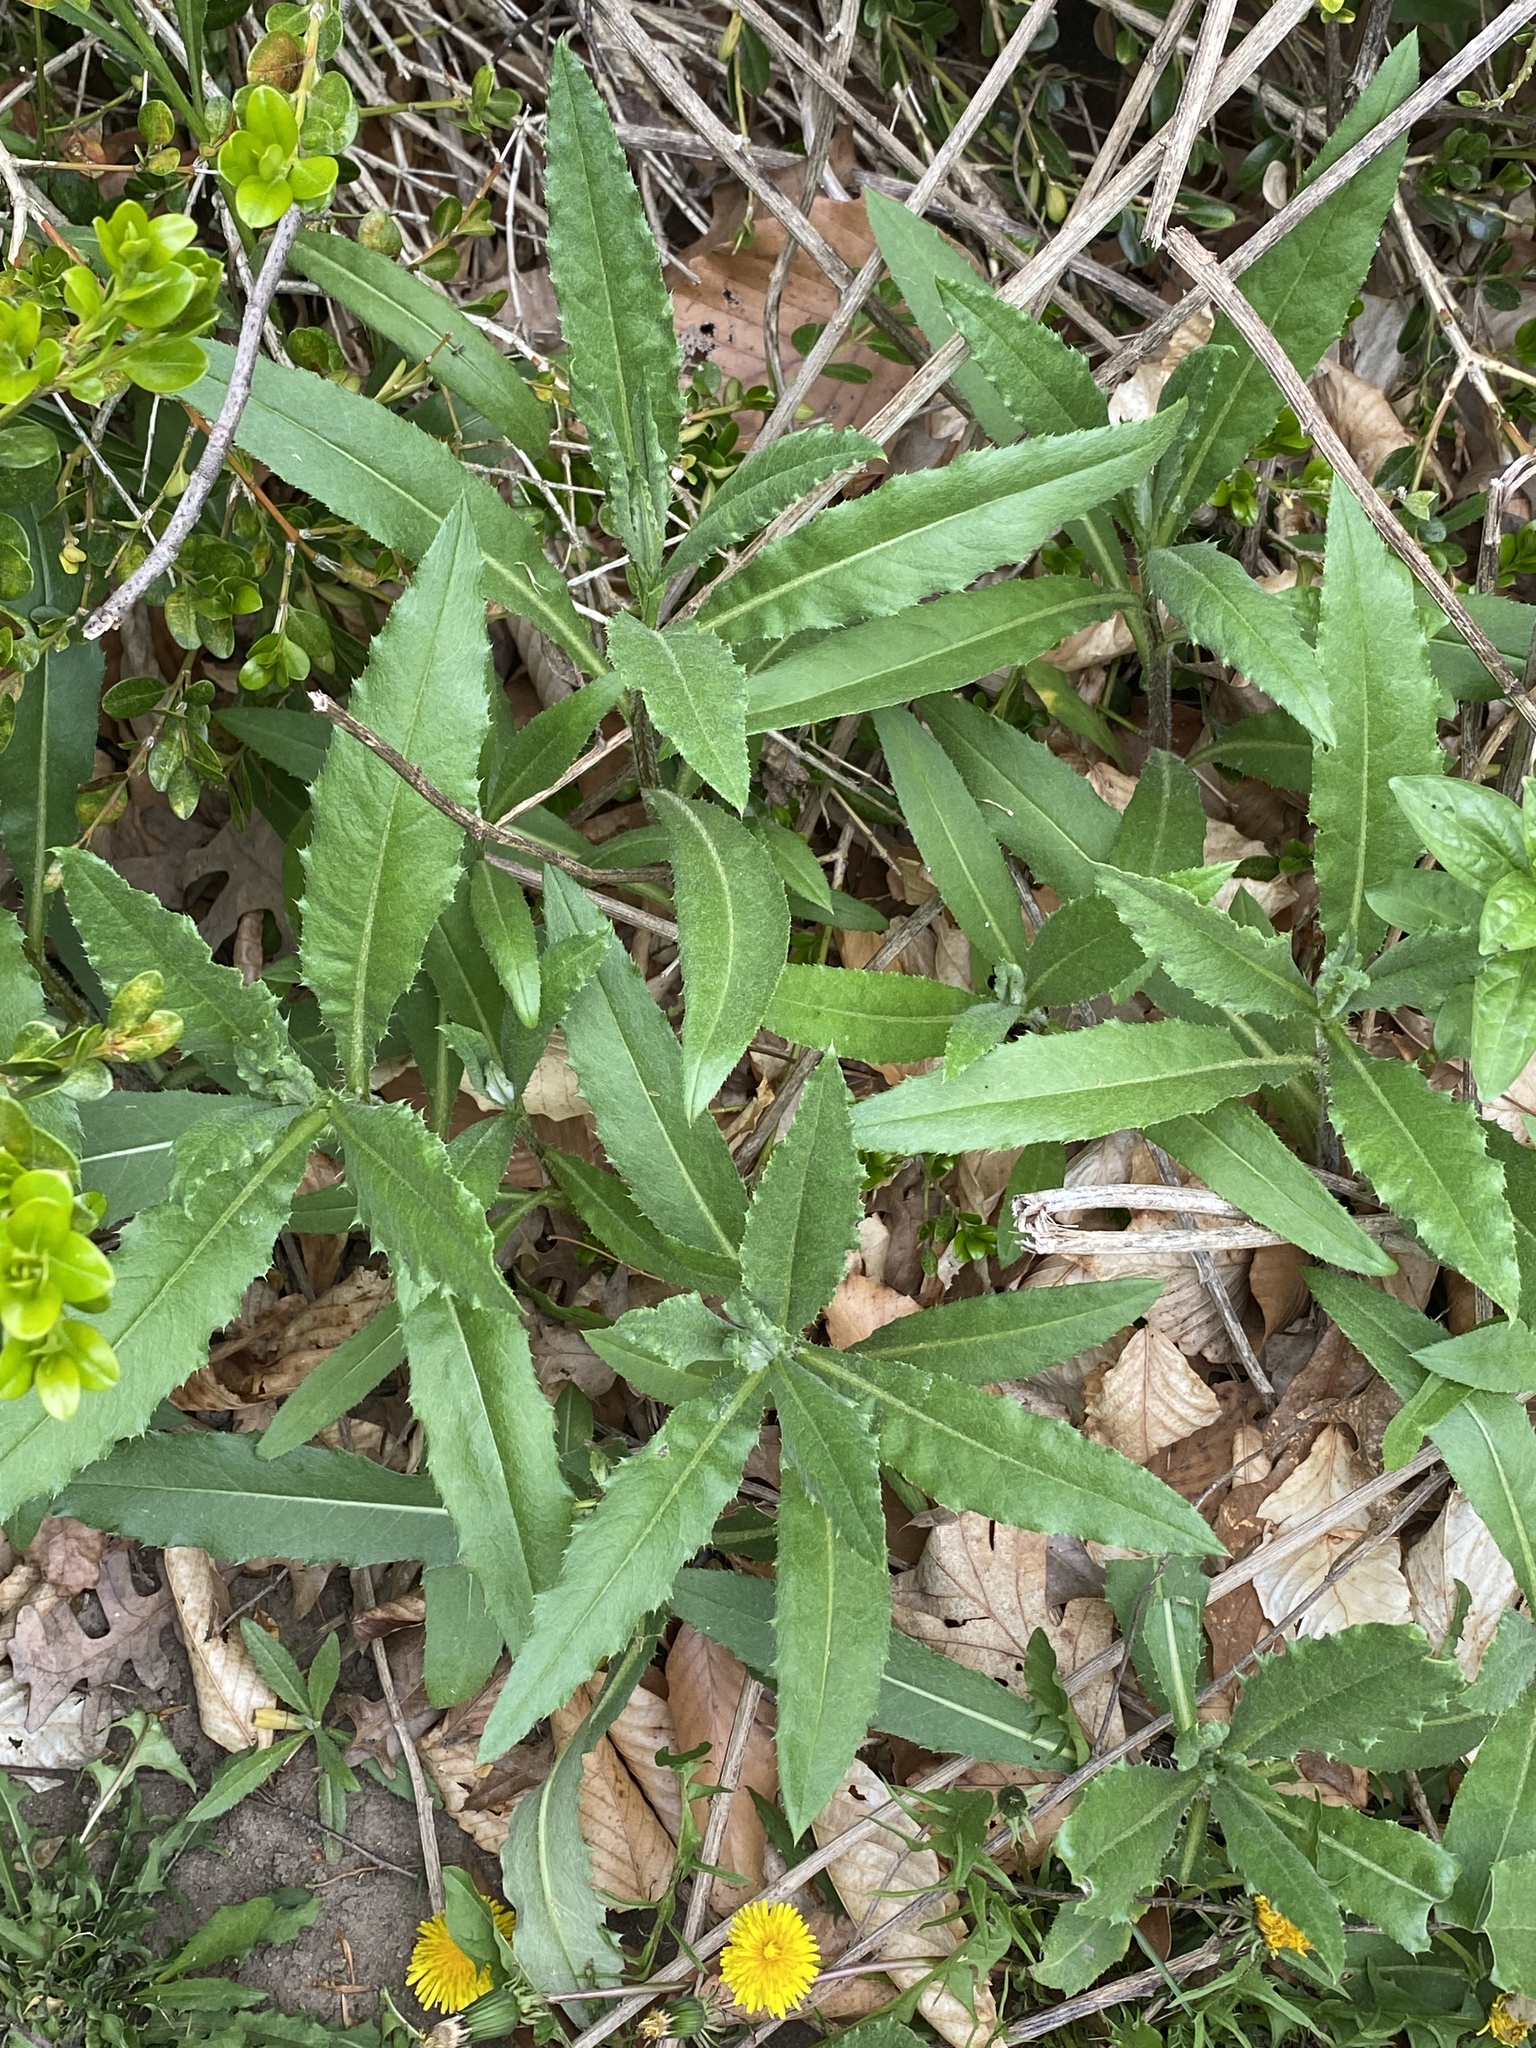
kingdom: Plantae
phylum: Tracheophyta
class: Magnoliopsida
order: Asterales
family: Asteraceae
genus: Cirsium
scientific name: Cirsium arvense
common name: Creeping thistle
